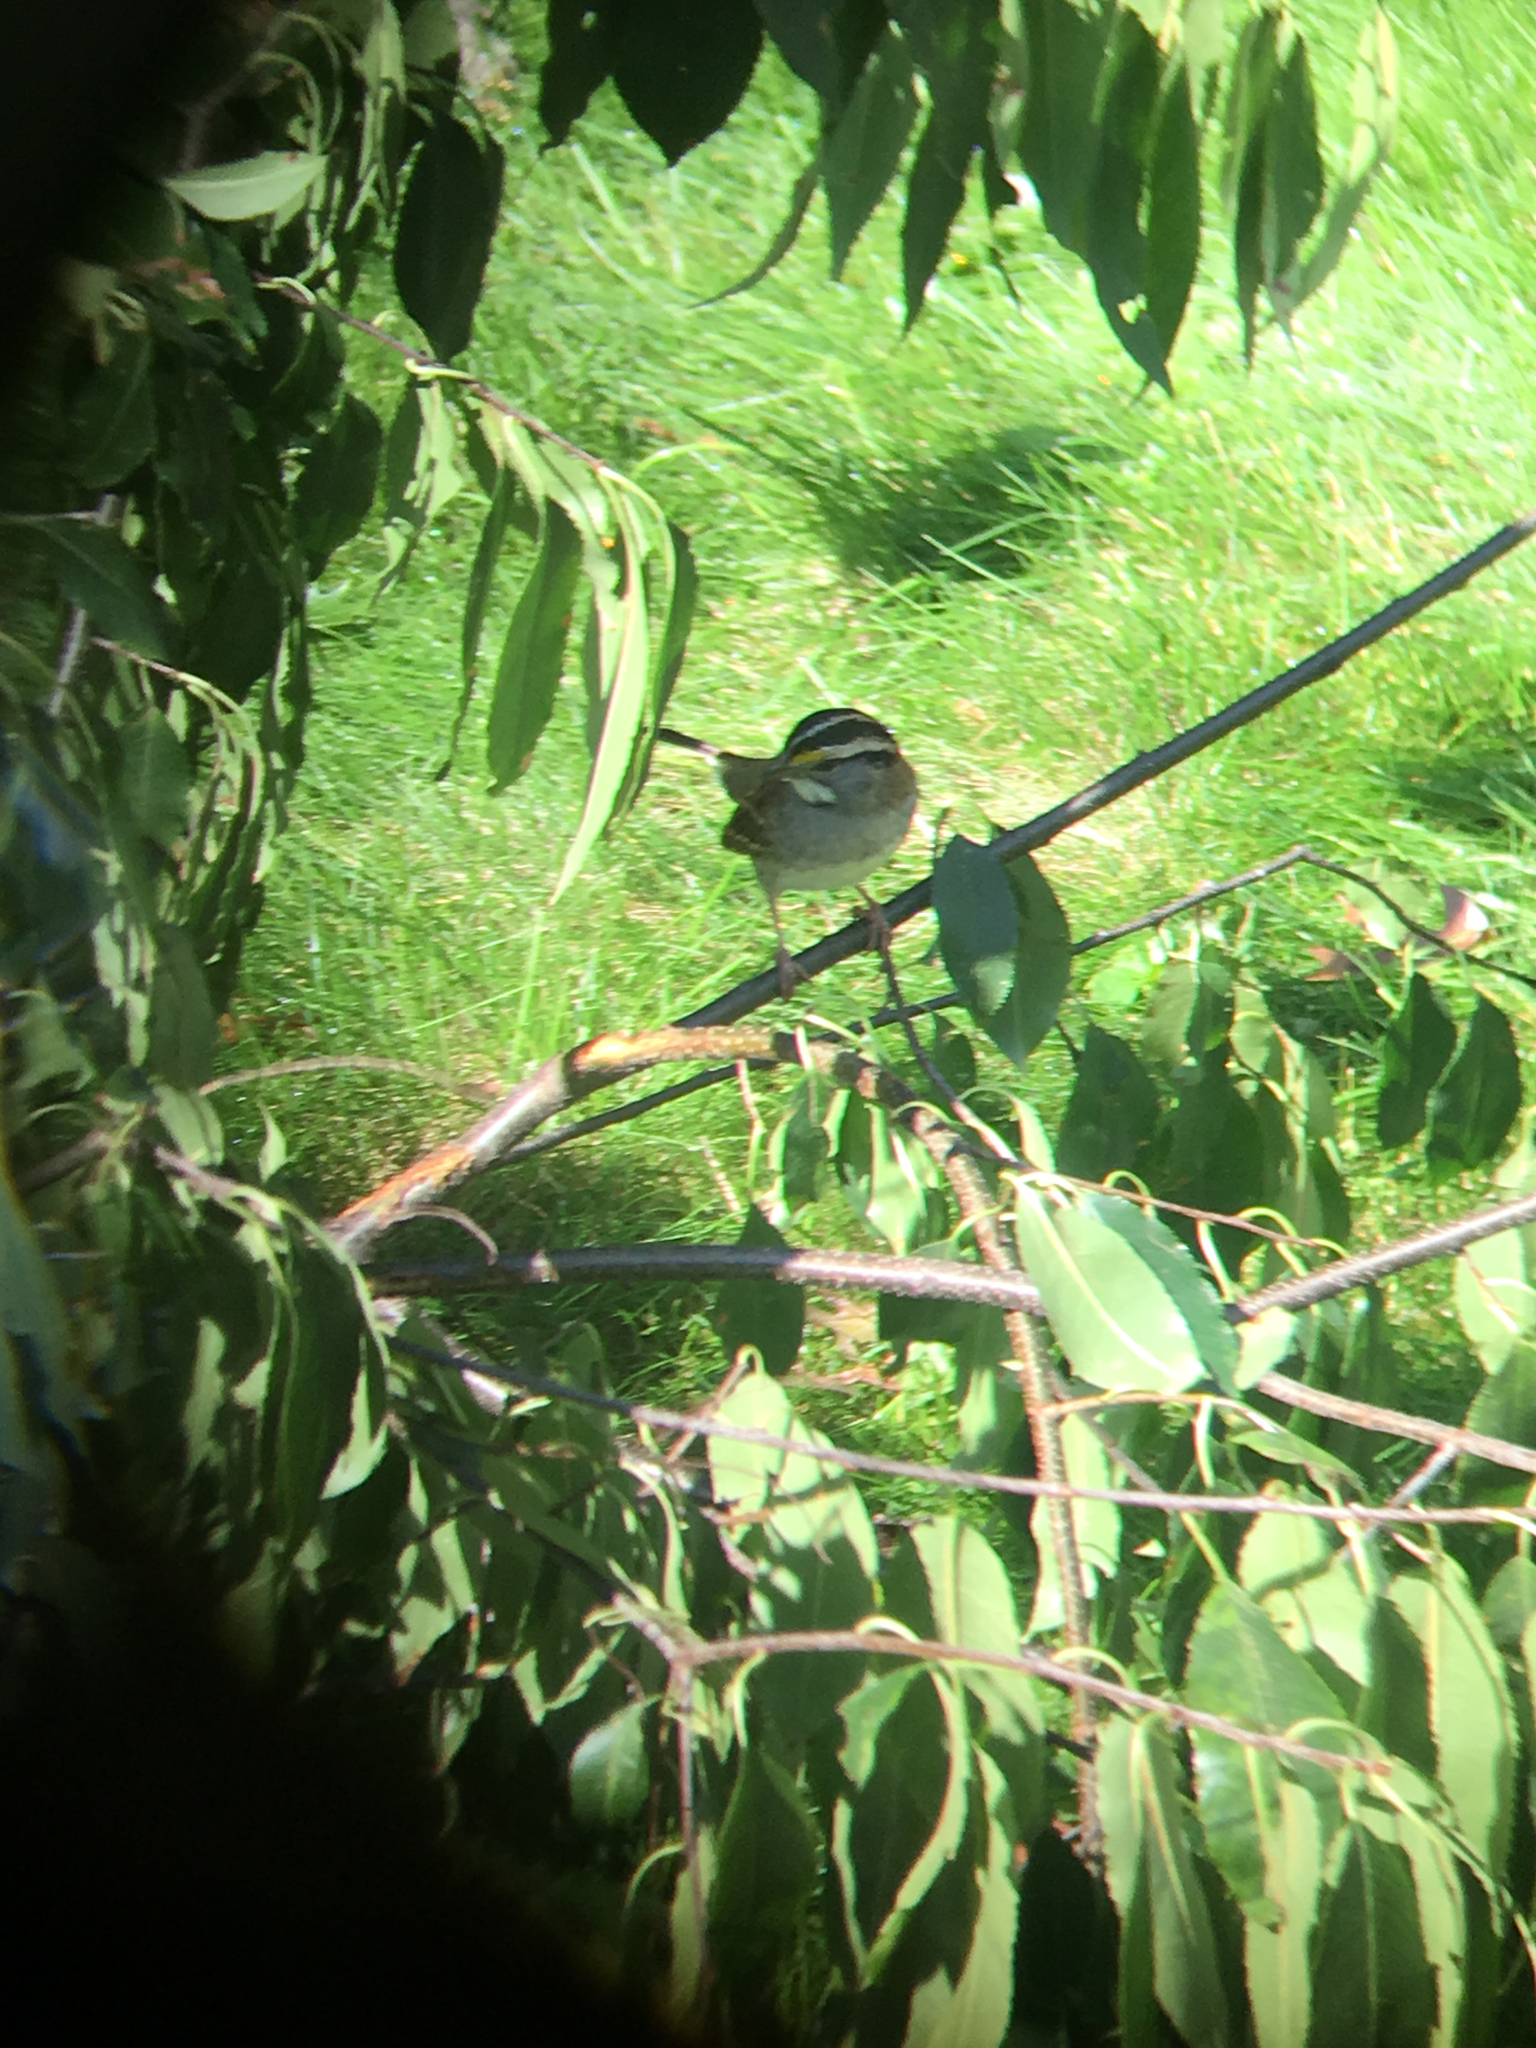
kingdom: Animalia
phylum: Chordata
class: Aves
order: Passeriformes
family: Passerellidae
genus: Zonotrichia
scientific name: Zonotrichia albicollis
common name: White-throated sparrow
